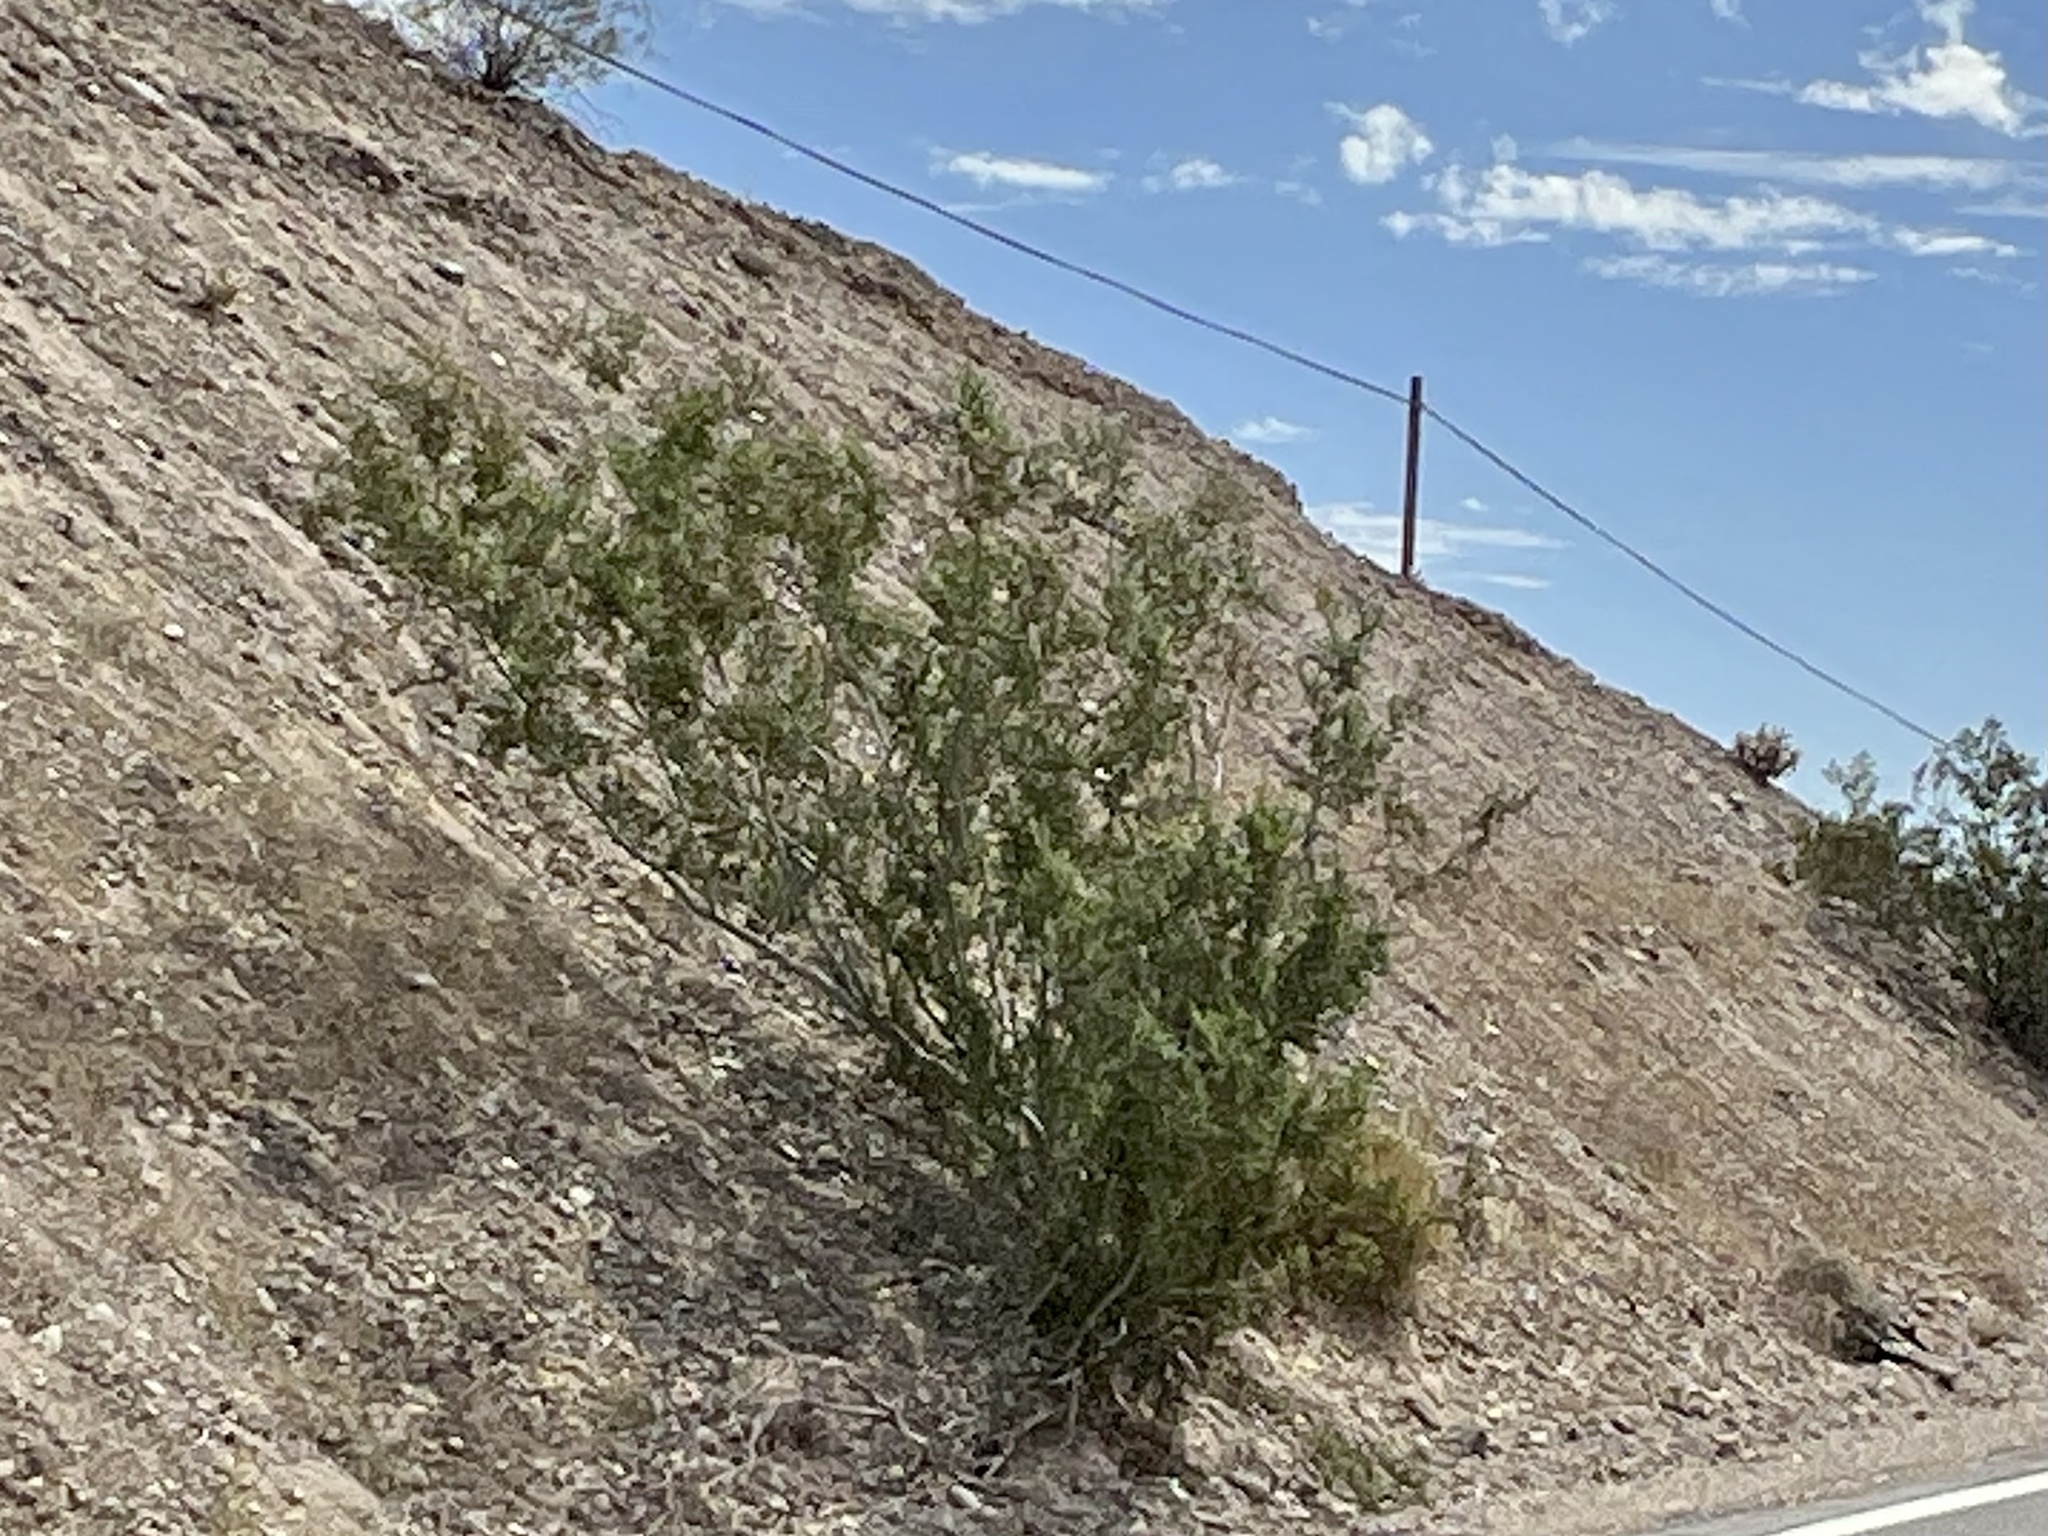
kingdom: Plantae
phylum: Tracheophyta
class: Magnoliopsida
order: Zygophyllales
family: Zygophyllaceae
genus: Larrea
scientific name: Larrea tridentata
